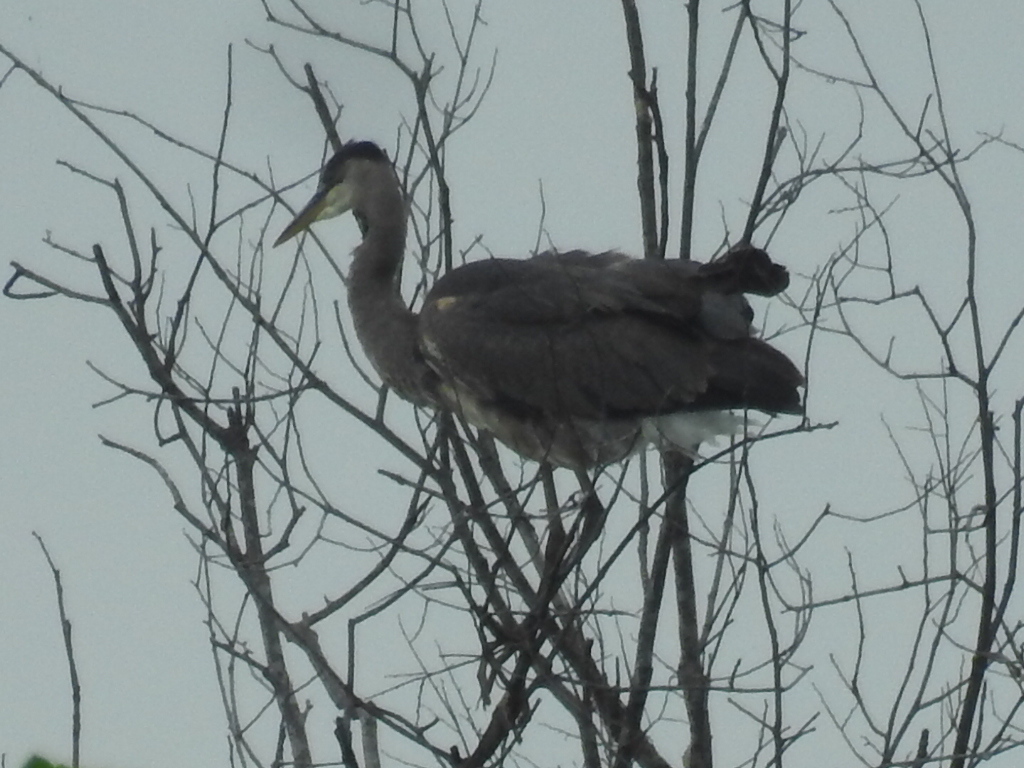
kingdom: Animalia
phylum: Chordata
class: Aves
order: Pelecaniformes
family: Ardeidae
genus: Ardea
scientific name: Ardea herodias
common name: Great blue heron
